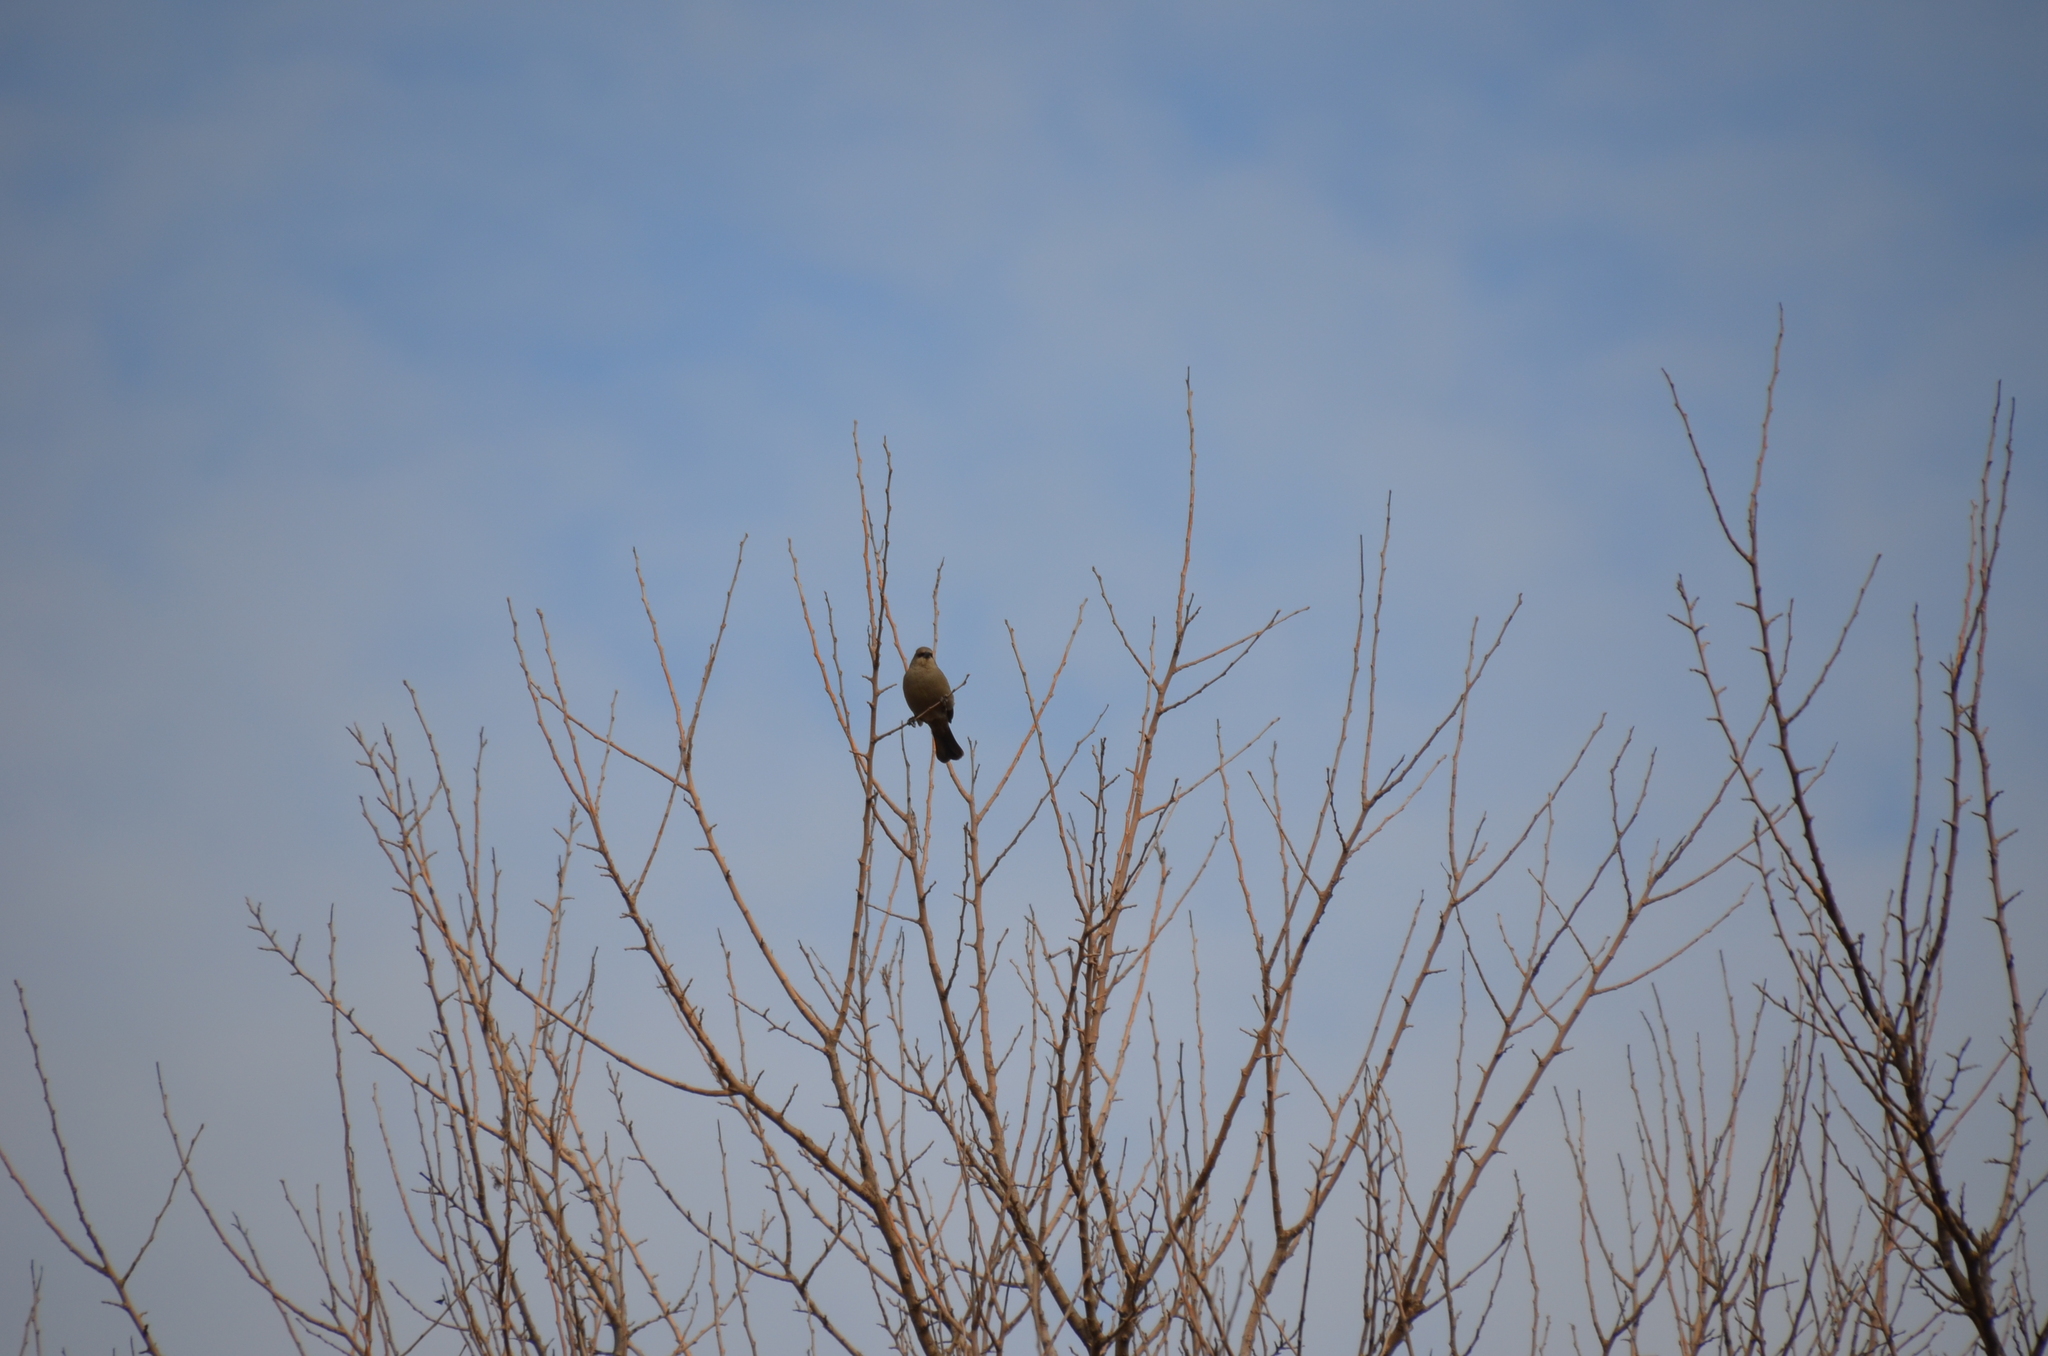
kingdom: Animalia
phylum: Chordata
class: Aves
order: Passeriformes
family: Icteridae
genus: Agelaioides
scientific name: Agelaioides badius
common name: Baywing
